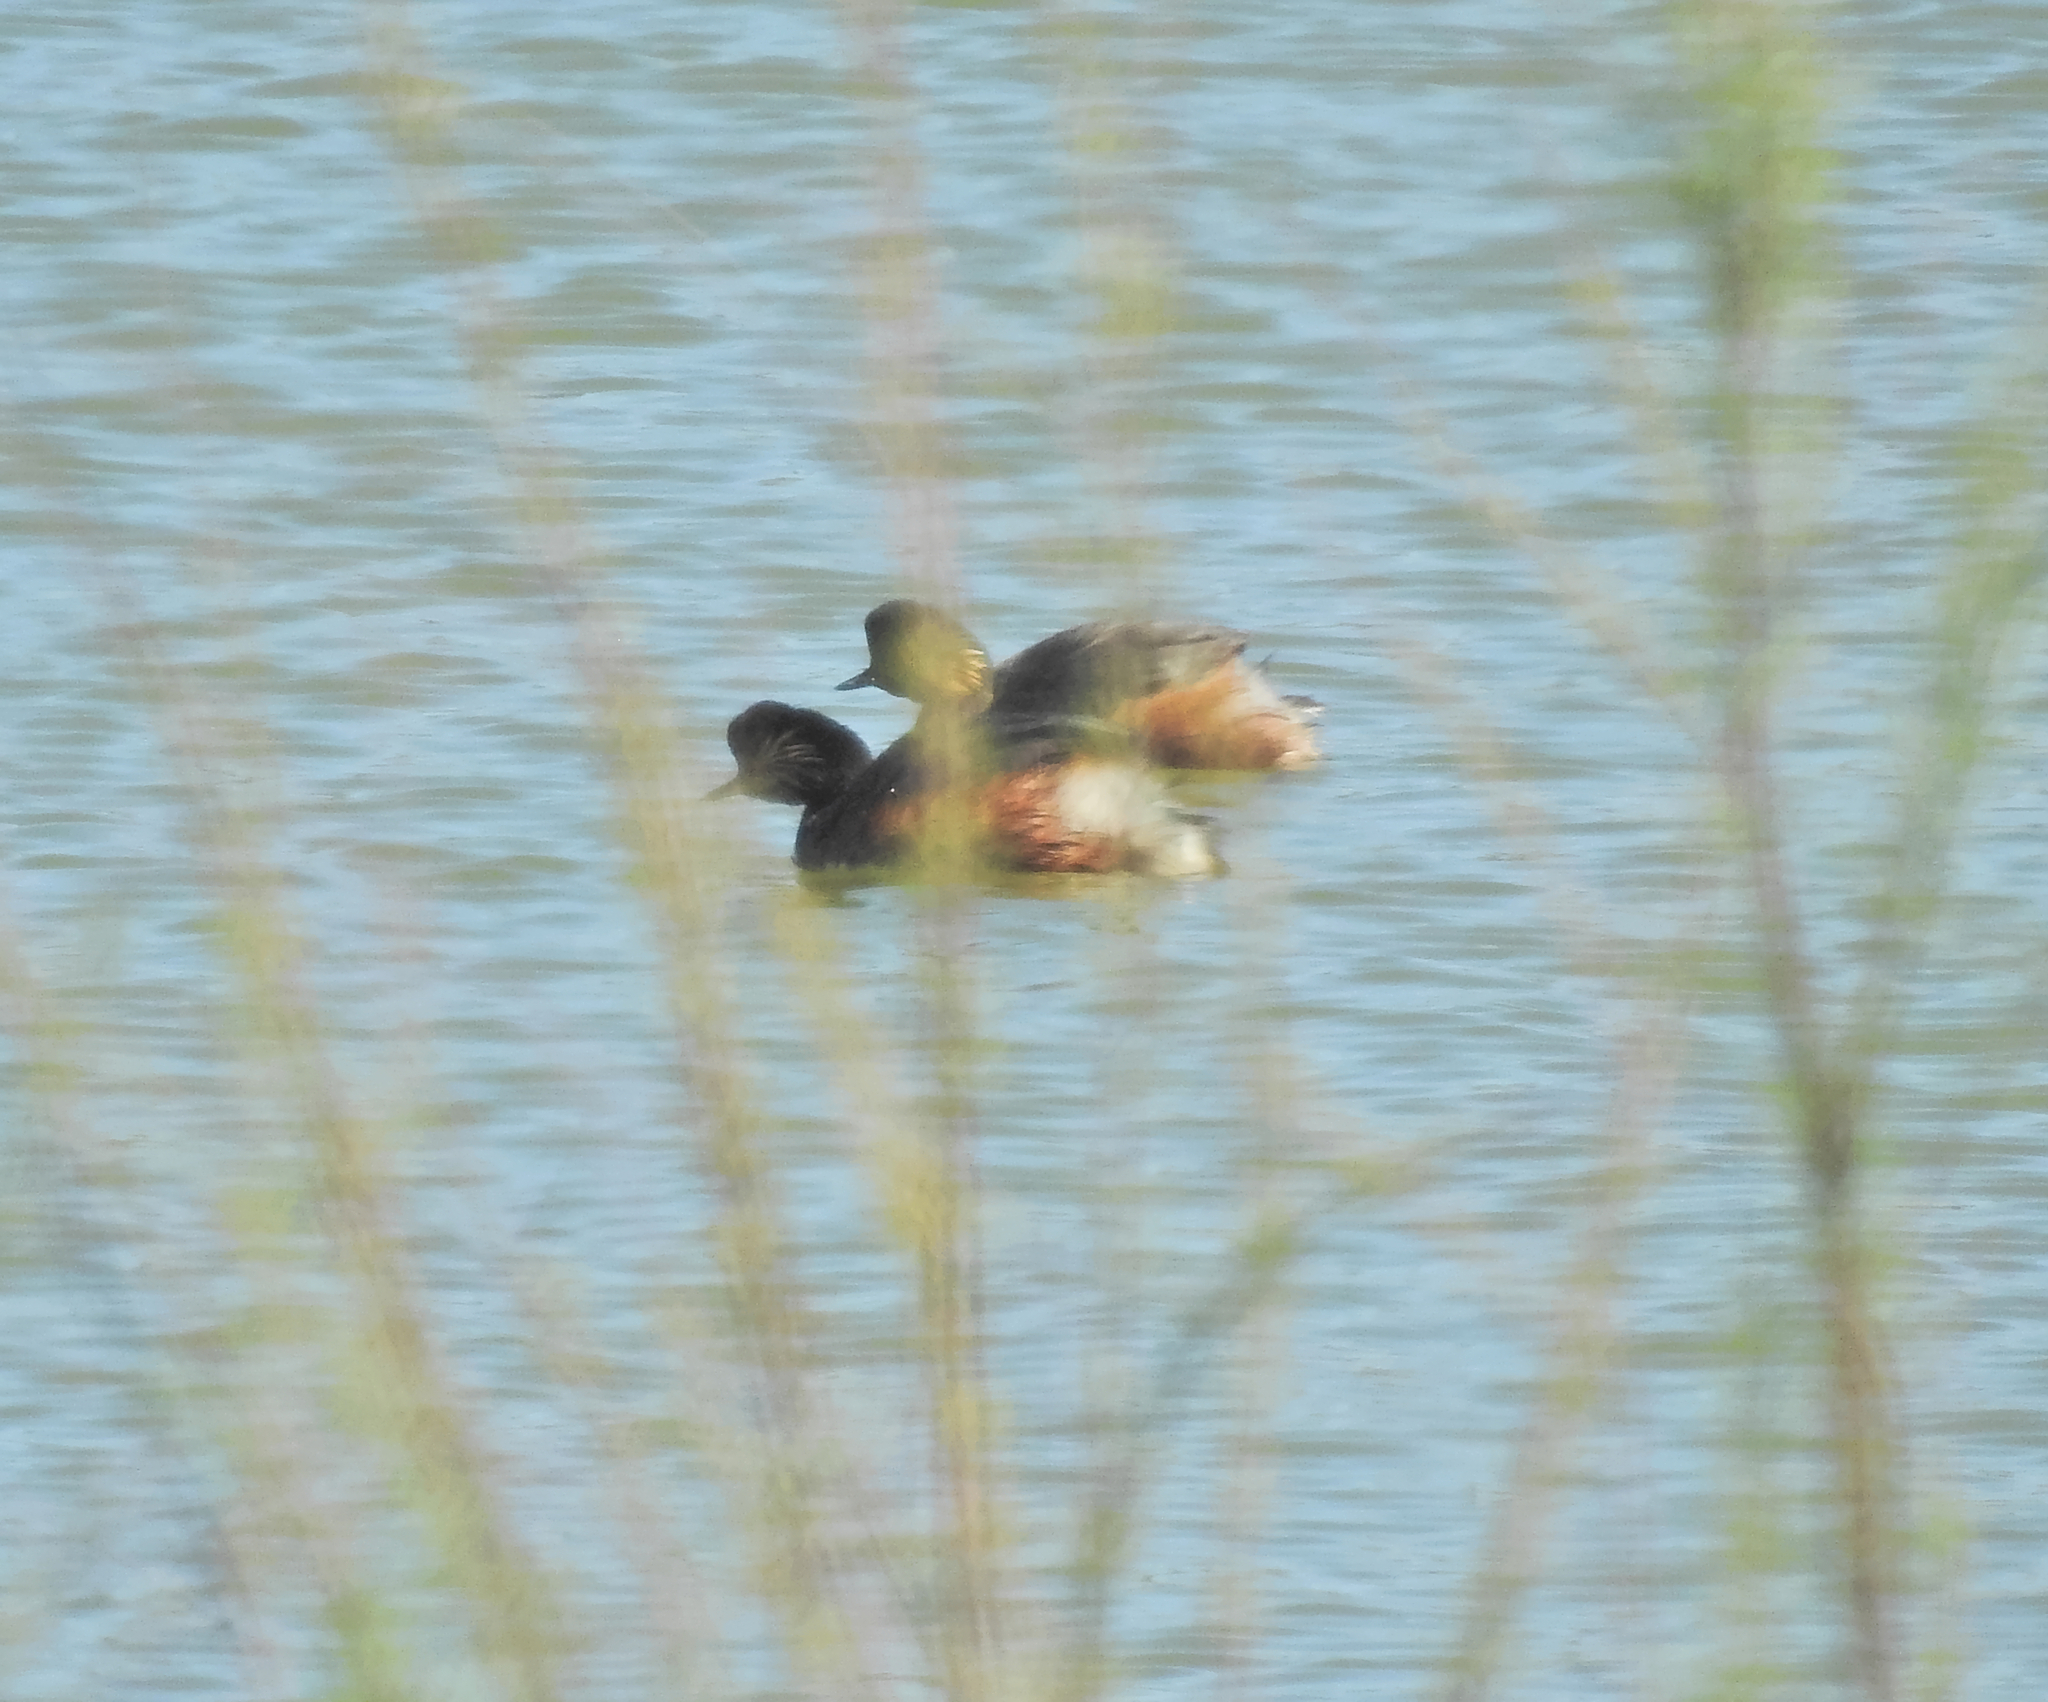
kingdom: Animalia
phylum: Chordata
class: Aves
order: Podicipediformes
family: Podicipedidae
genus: Podiceps
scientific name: Podiceps nigricollis
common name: Black-necked grebe
